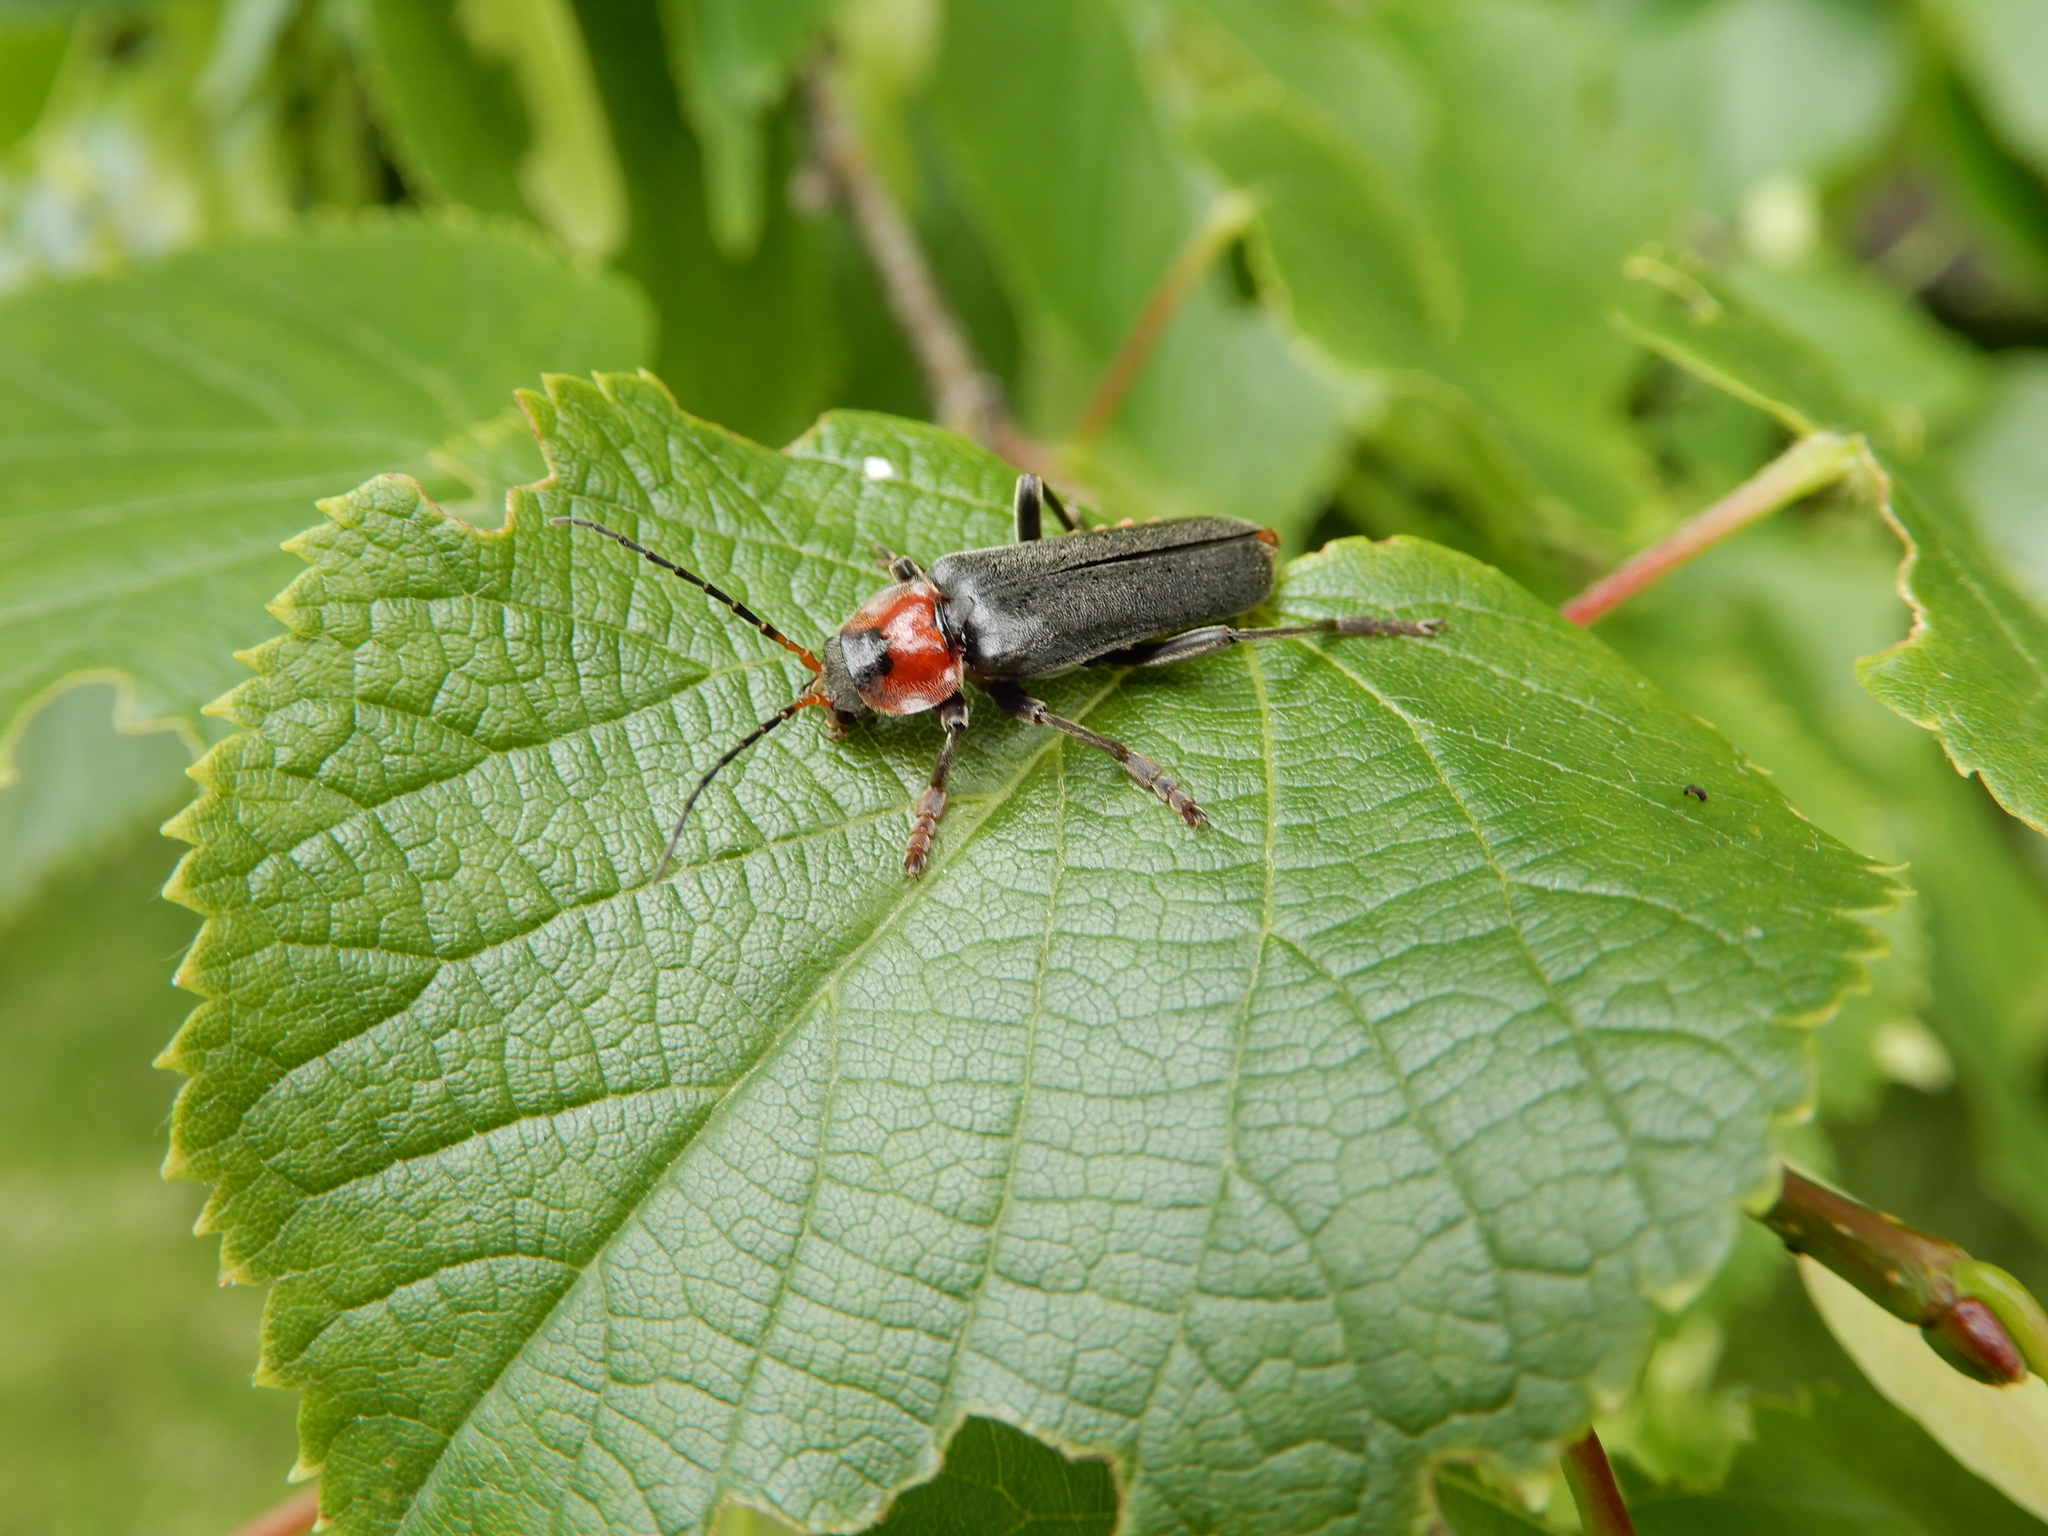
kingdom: Animalia
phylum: Arthropoda
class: Insecta
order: Coleoptera
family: Cantharidae
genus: Cantharis
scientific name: Cantharis fusca
